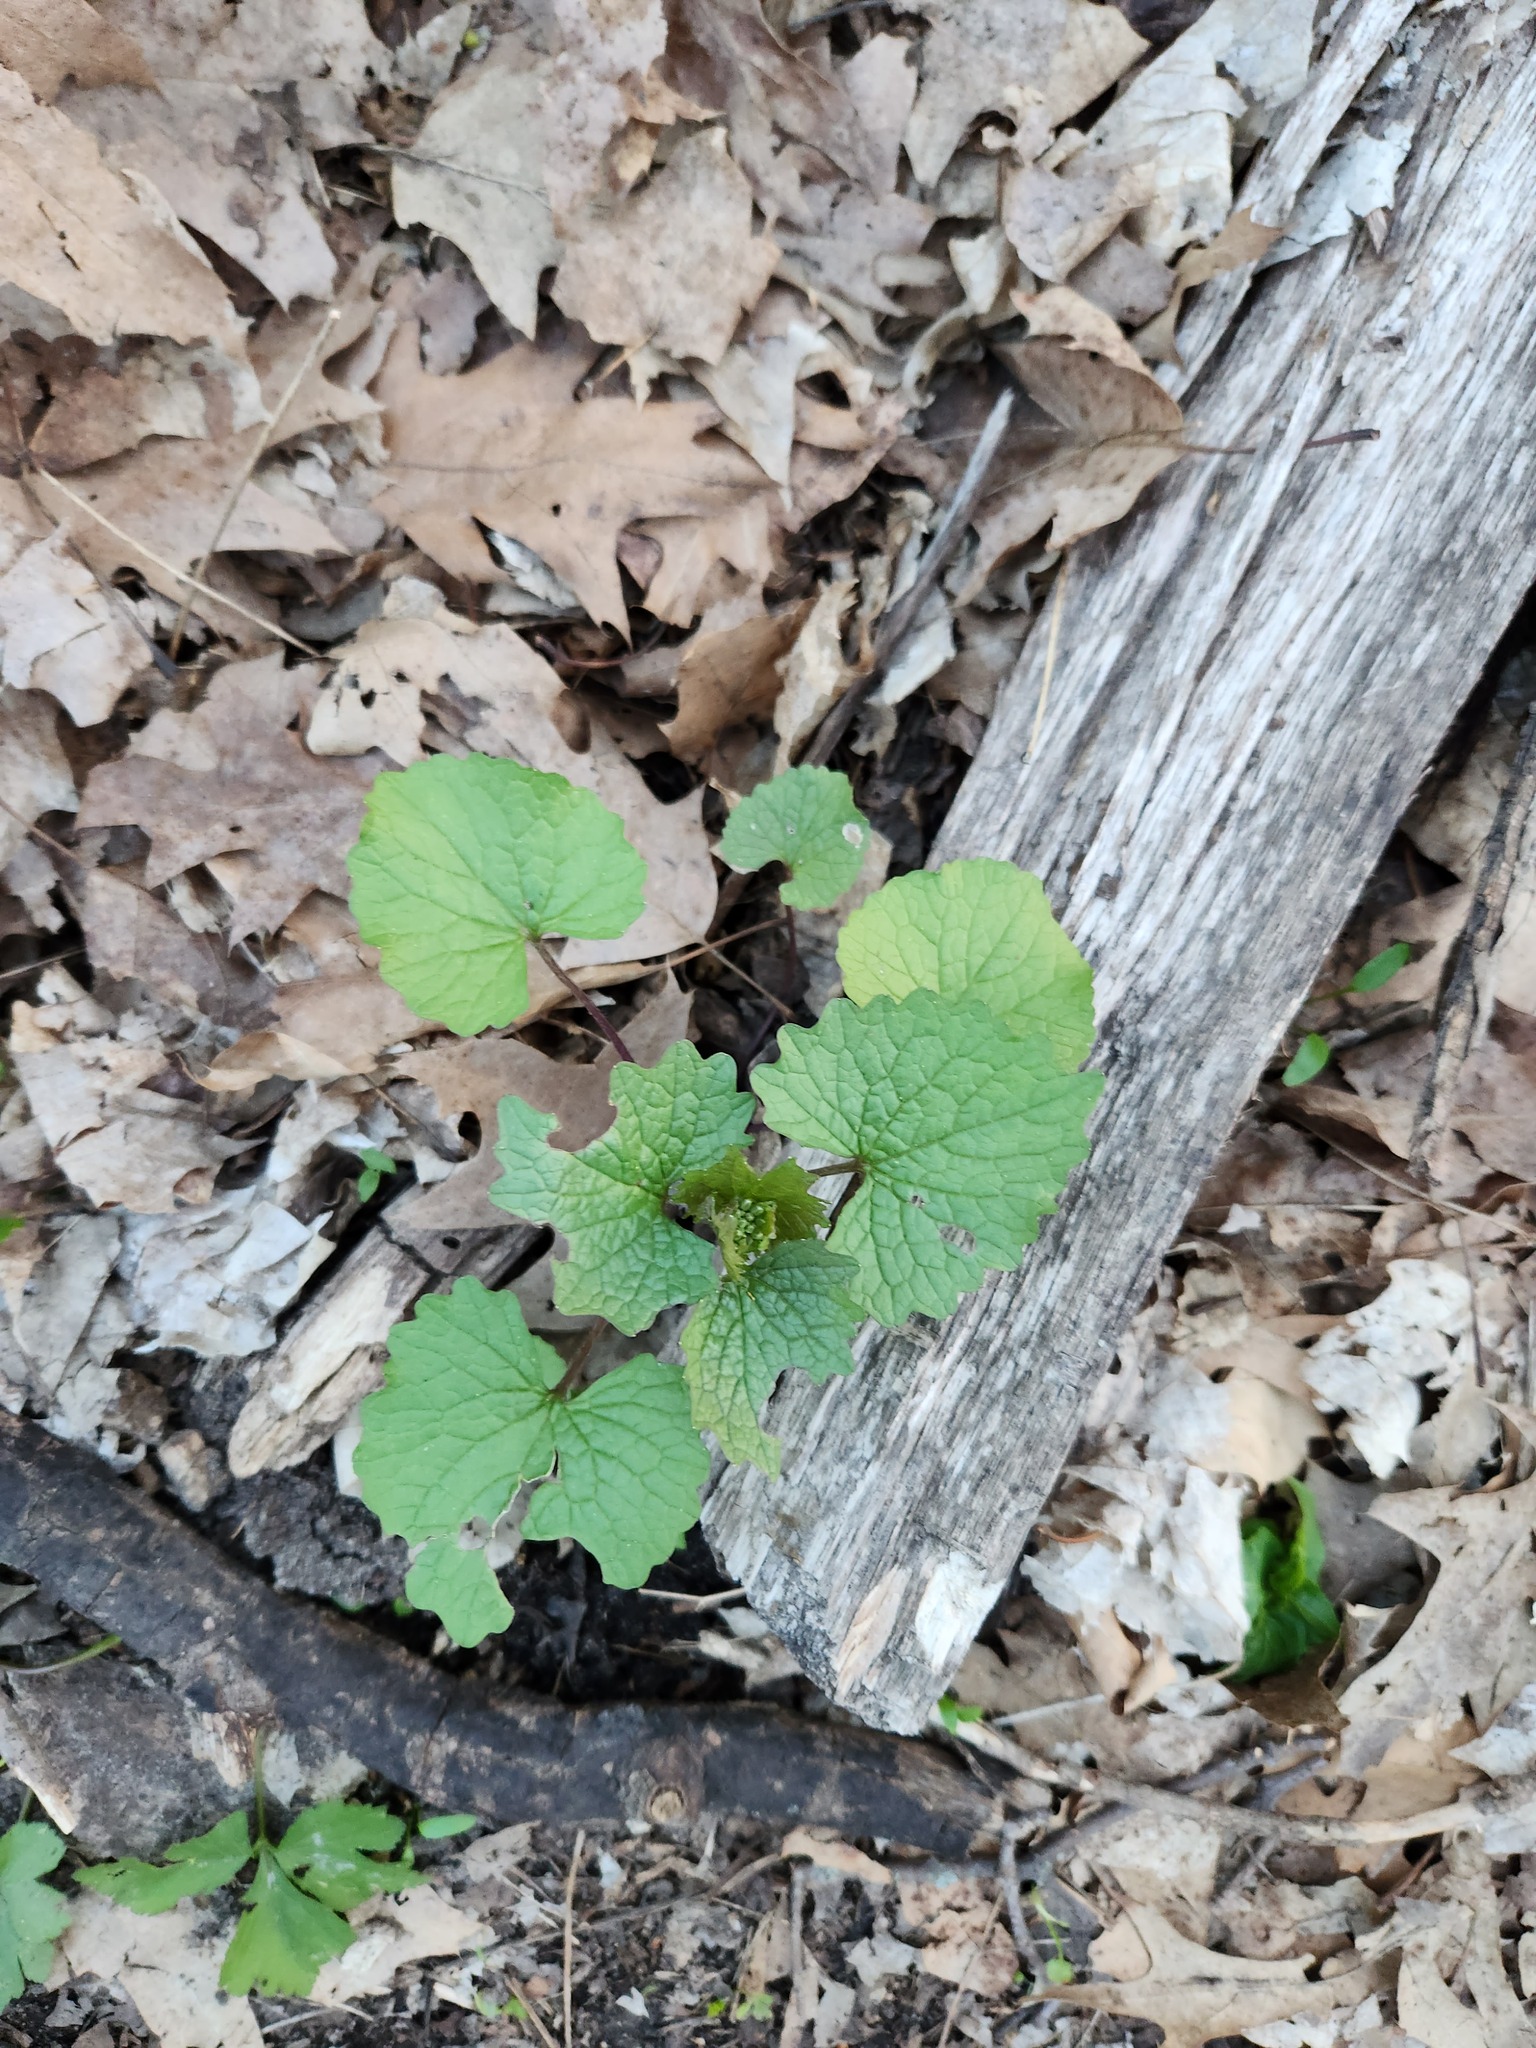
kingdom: Plantae
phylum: Tracheophyta
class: Magnoliopsida
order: Brassicales
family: Brassicaceae
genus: Alliaria
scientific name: Alliaria petiolata
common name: Garlic mustard
